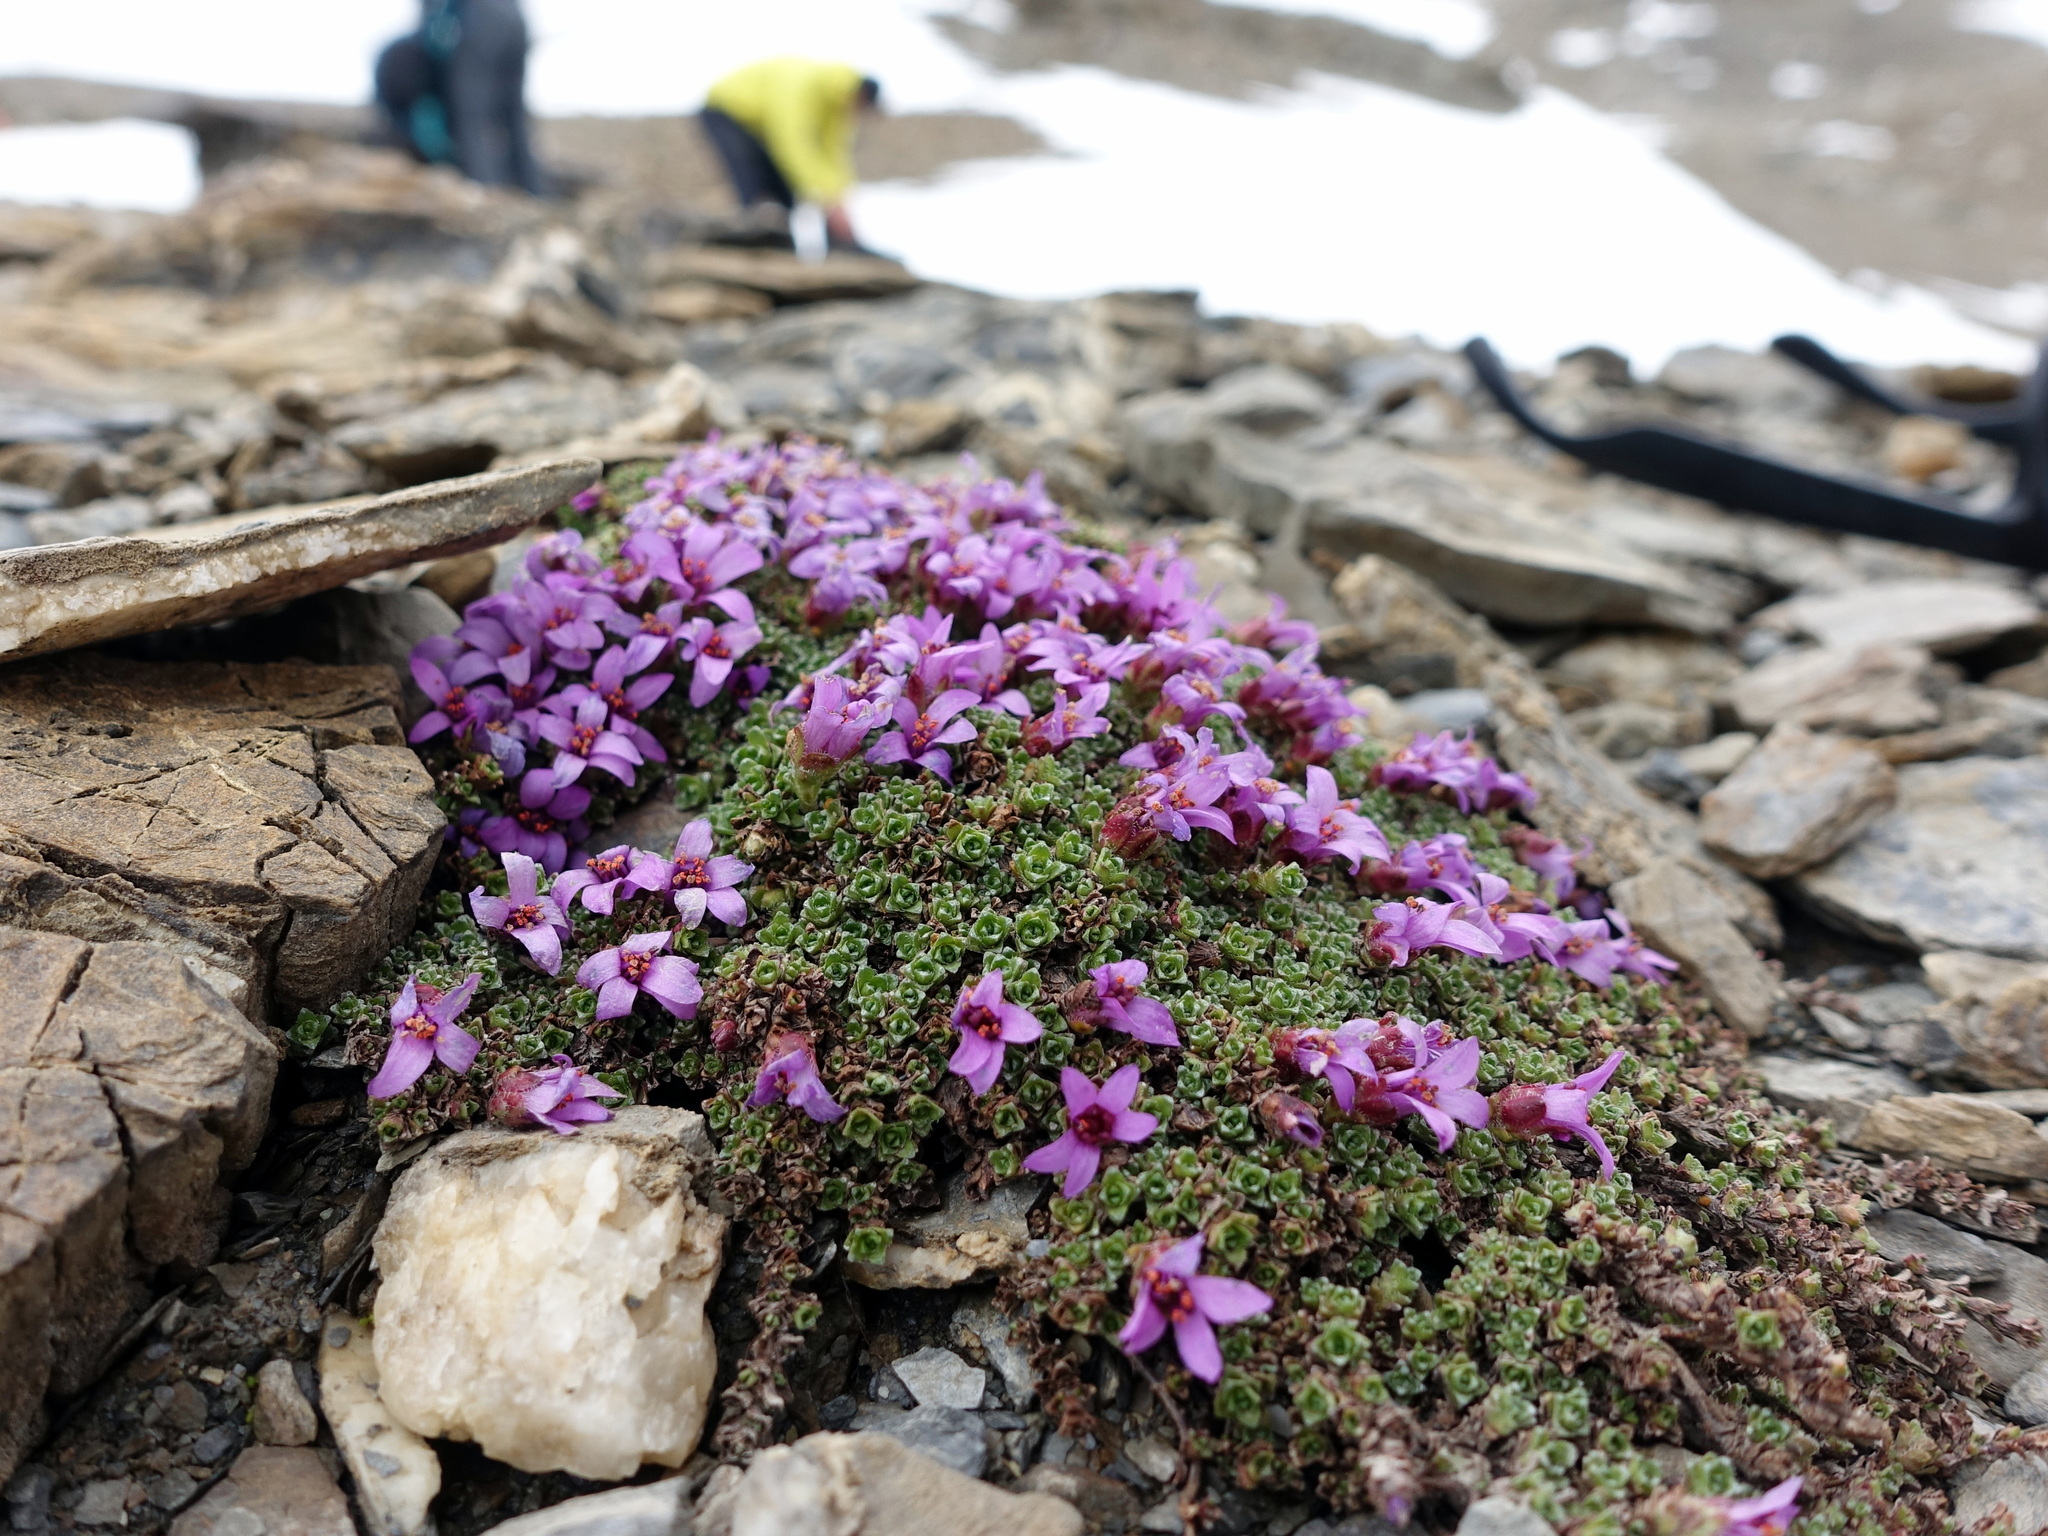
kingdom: Plantae
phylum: Tracheophyta
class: Magnoliopsida
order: Saxifragales
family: Saxifragaceae
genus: Saxifraga
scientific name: Saxifraga oppositifolia
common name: Purple saxifrage
